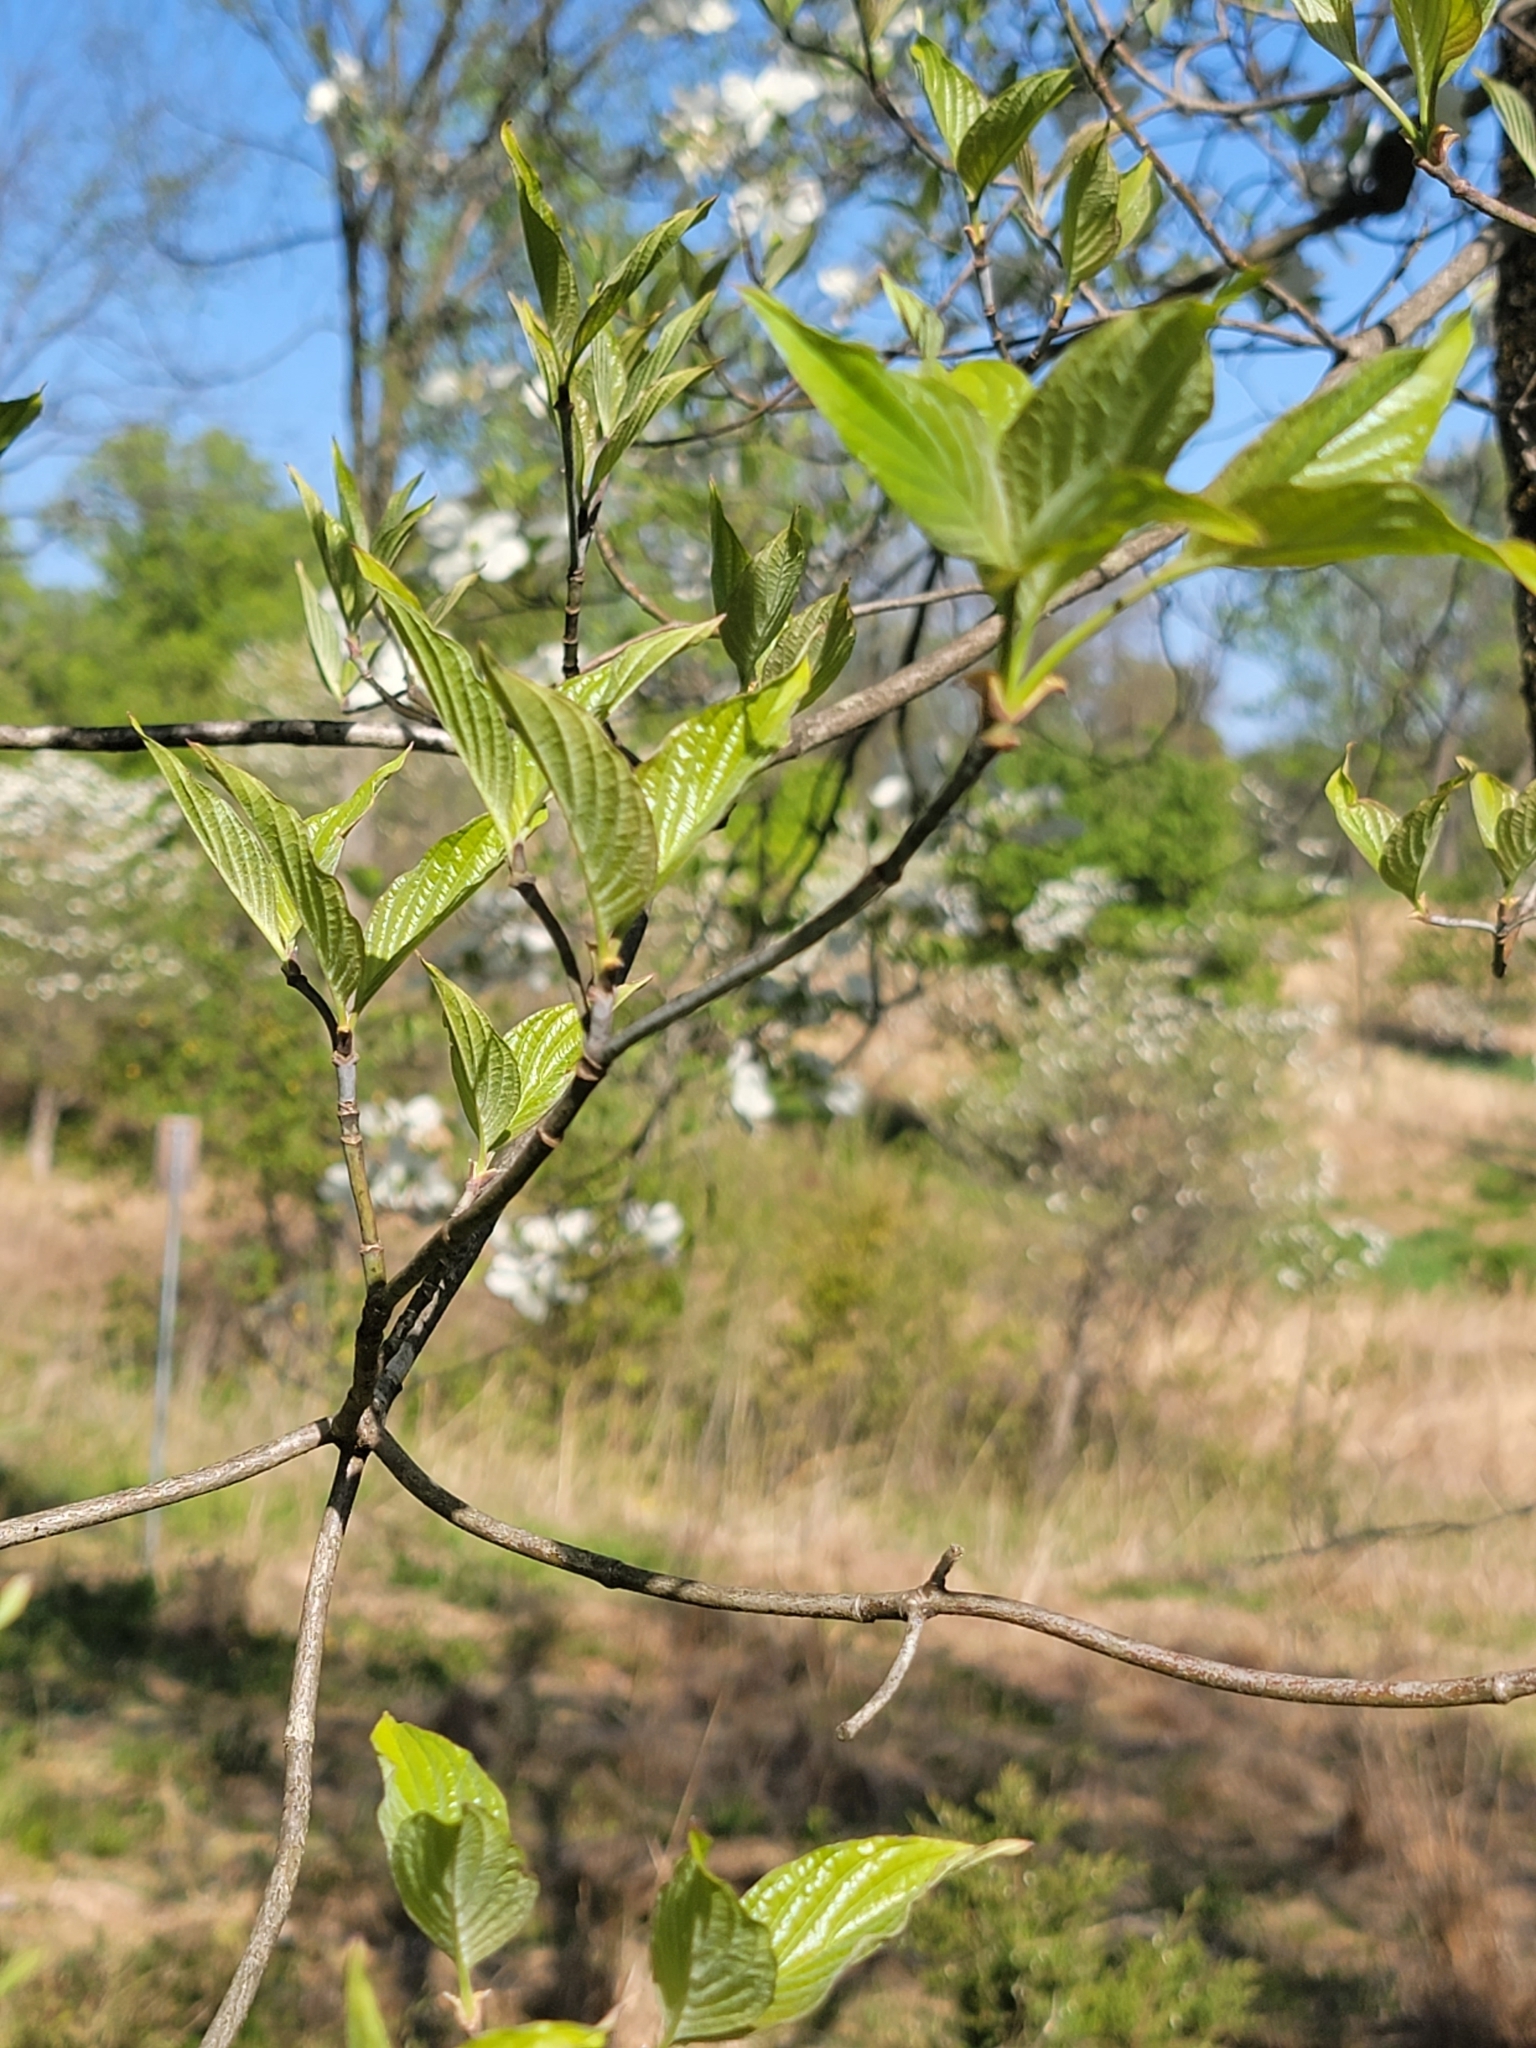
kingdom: Plantae
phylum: Tracheophyta
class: Magnoliopsida
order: Cornales
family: Cornaceae
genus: Cornus
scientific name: Cornus florida
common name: Flowering dogwood
